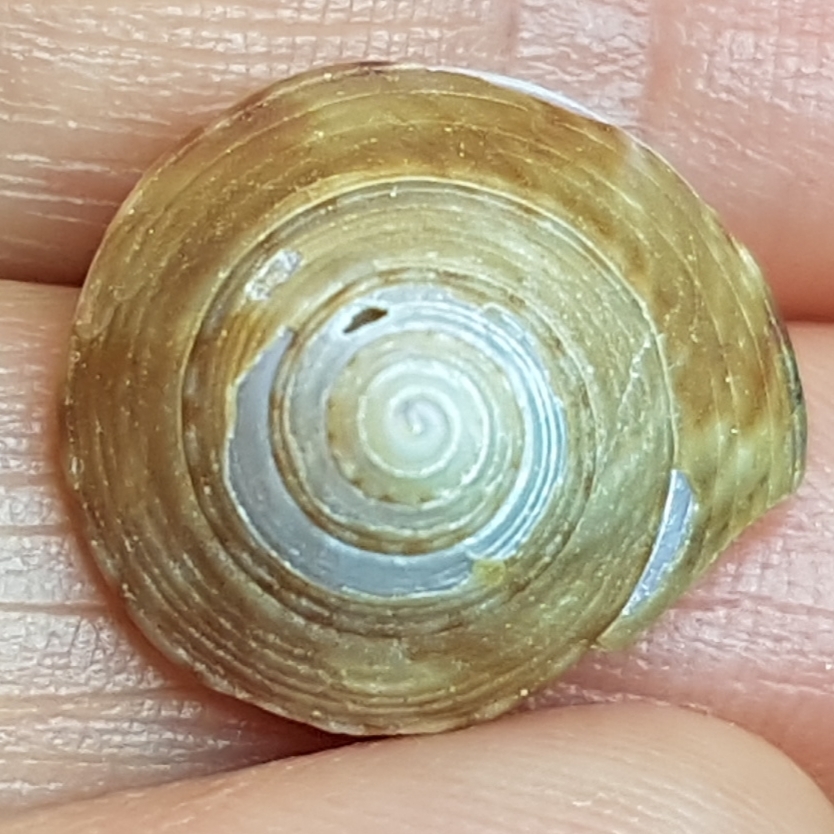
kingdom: Animalia
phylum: Mollusca
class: Gastropoda
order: Trochida
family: Calliostomatidae
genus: Calliostoma
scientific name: Calliostoma zizyphinum
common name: Painted top shell
